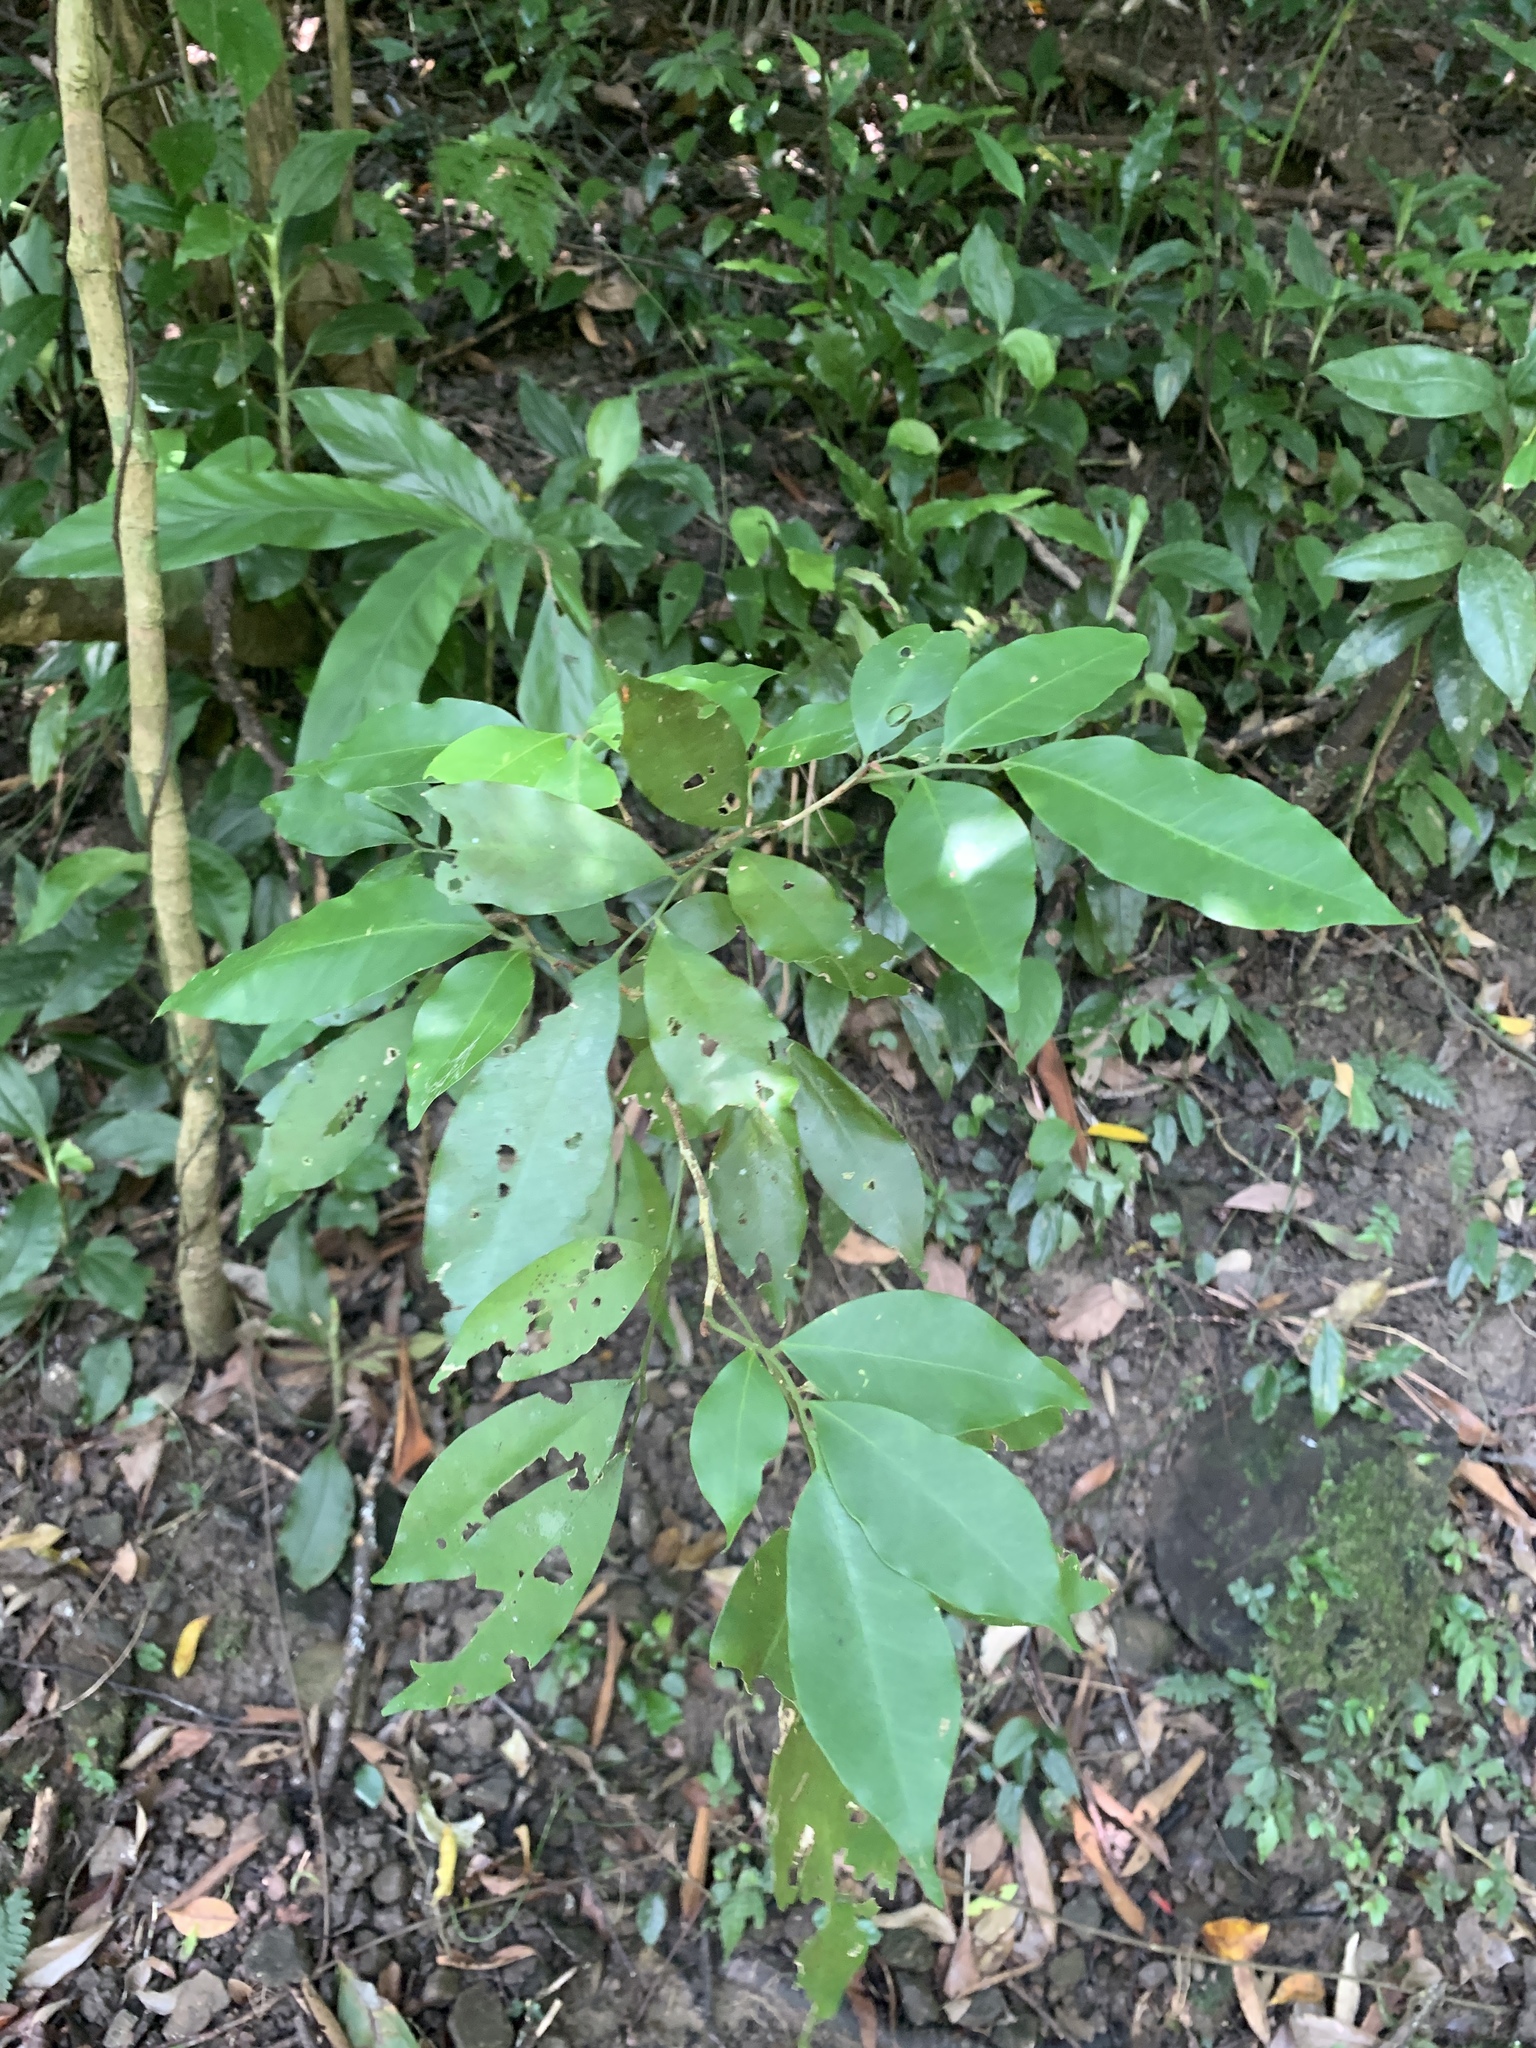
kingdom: Plantae
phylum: Tracheophyta
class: Magnoliopsida
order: Sapindales
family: Rutaceae
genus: Glycosmis
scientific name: Glycosmis parviflora
